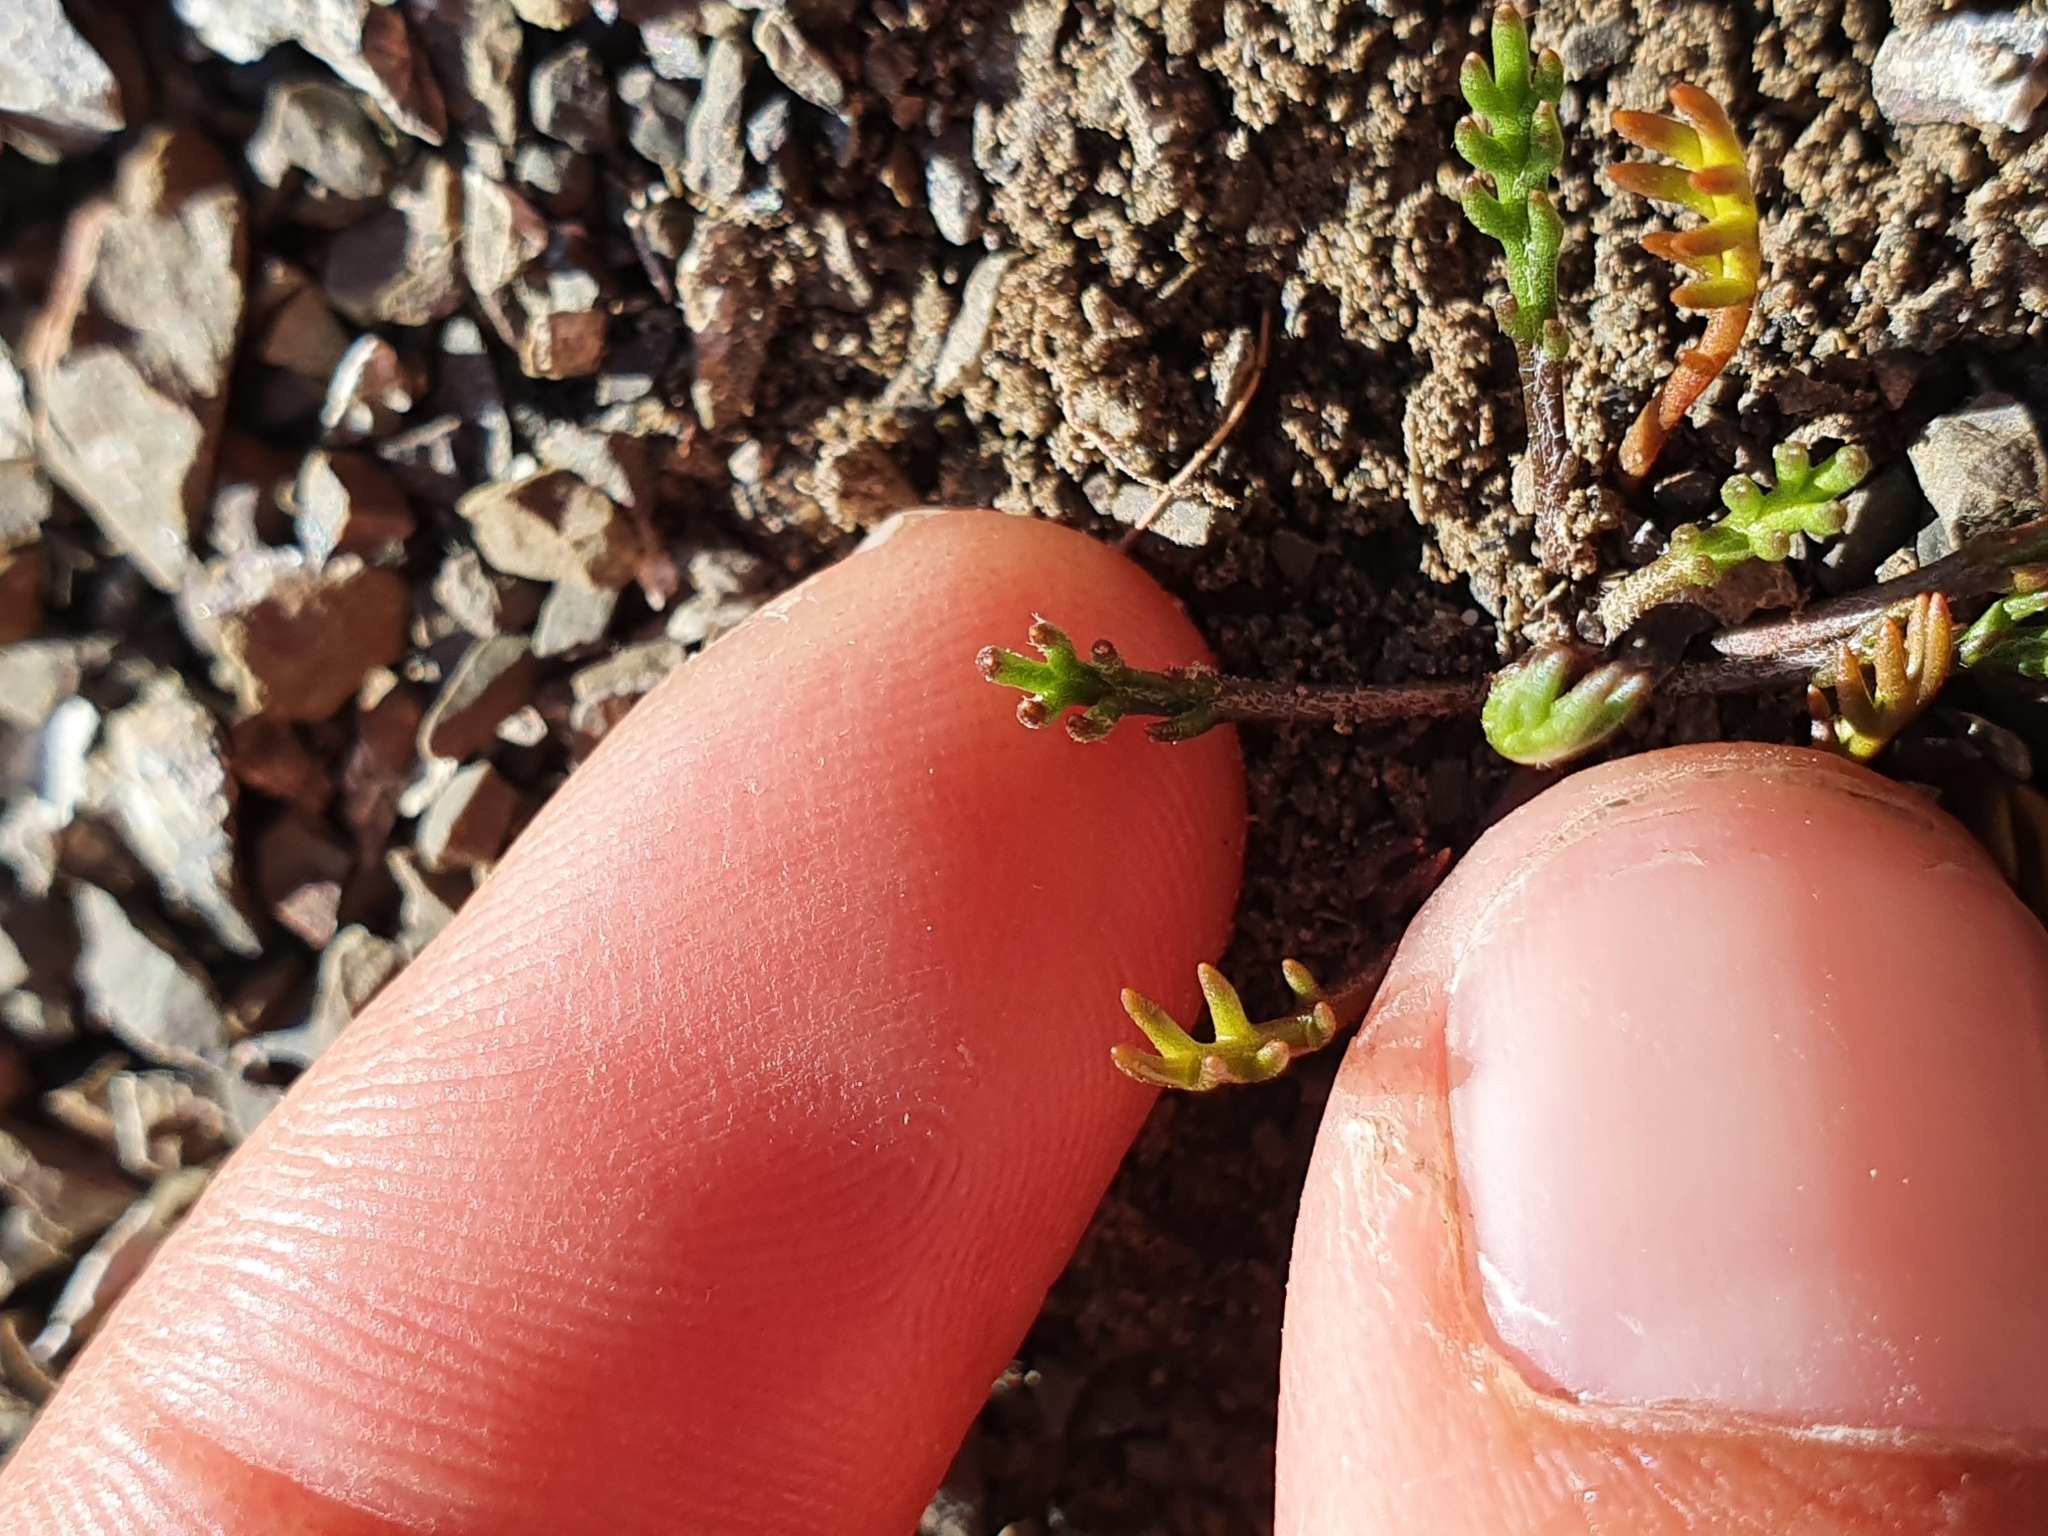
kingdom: Plantae
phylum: Tracheophyta
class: Magnoliopsida
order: Asterales
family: Asteraceae
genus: Leptinella
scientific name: Leptinella pectinata
